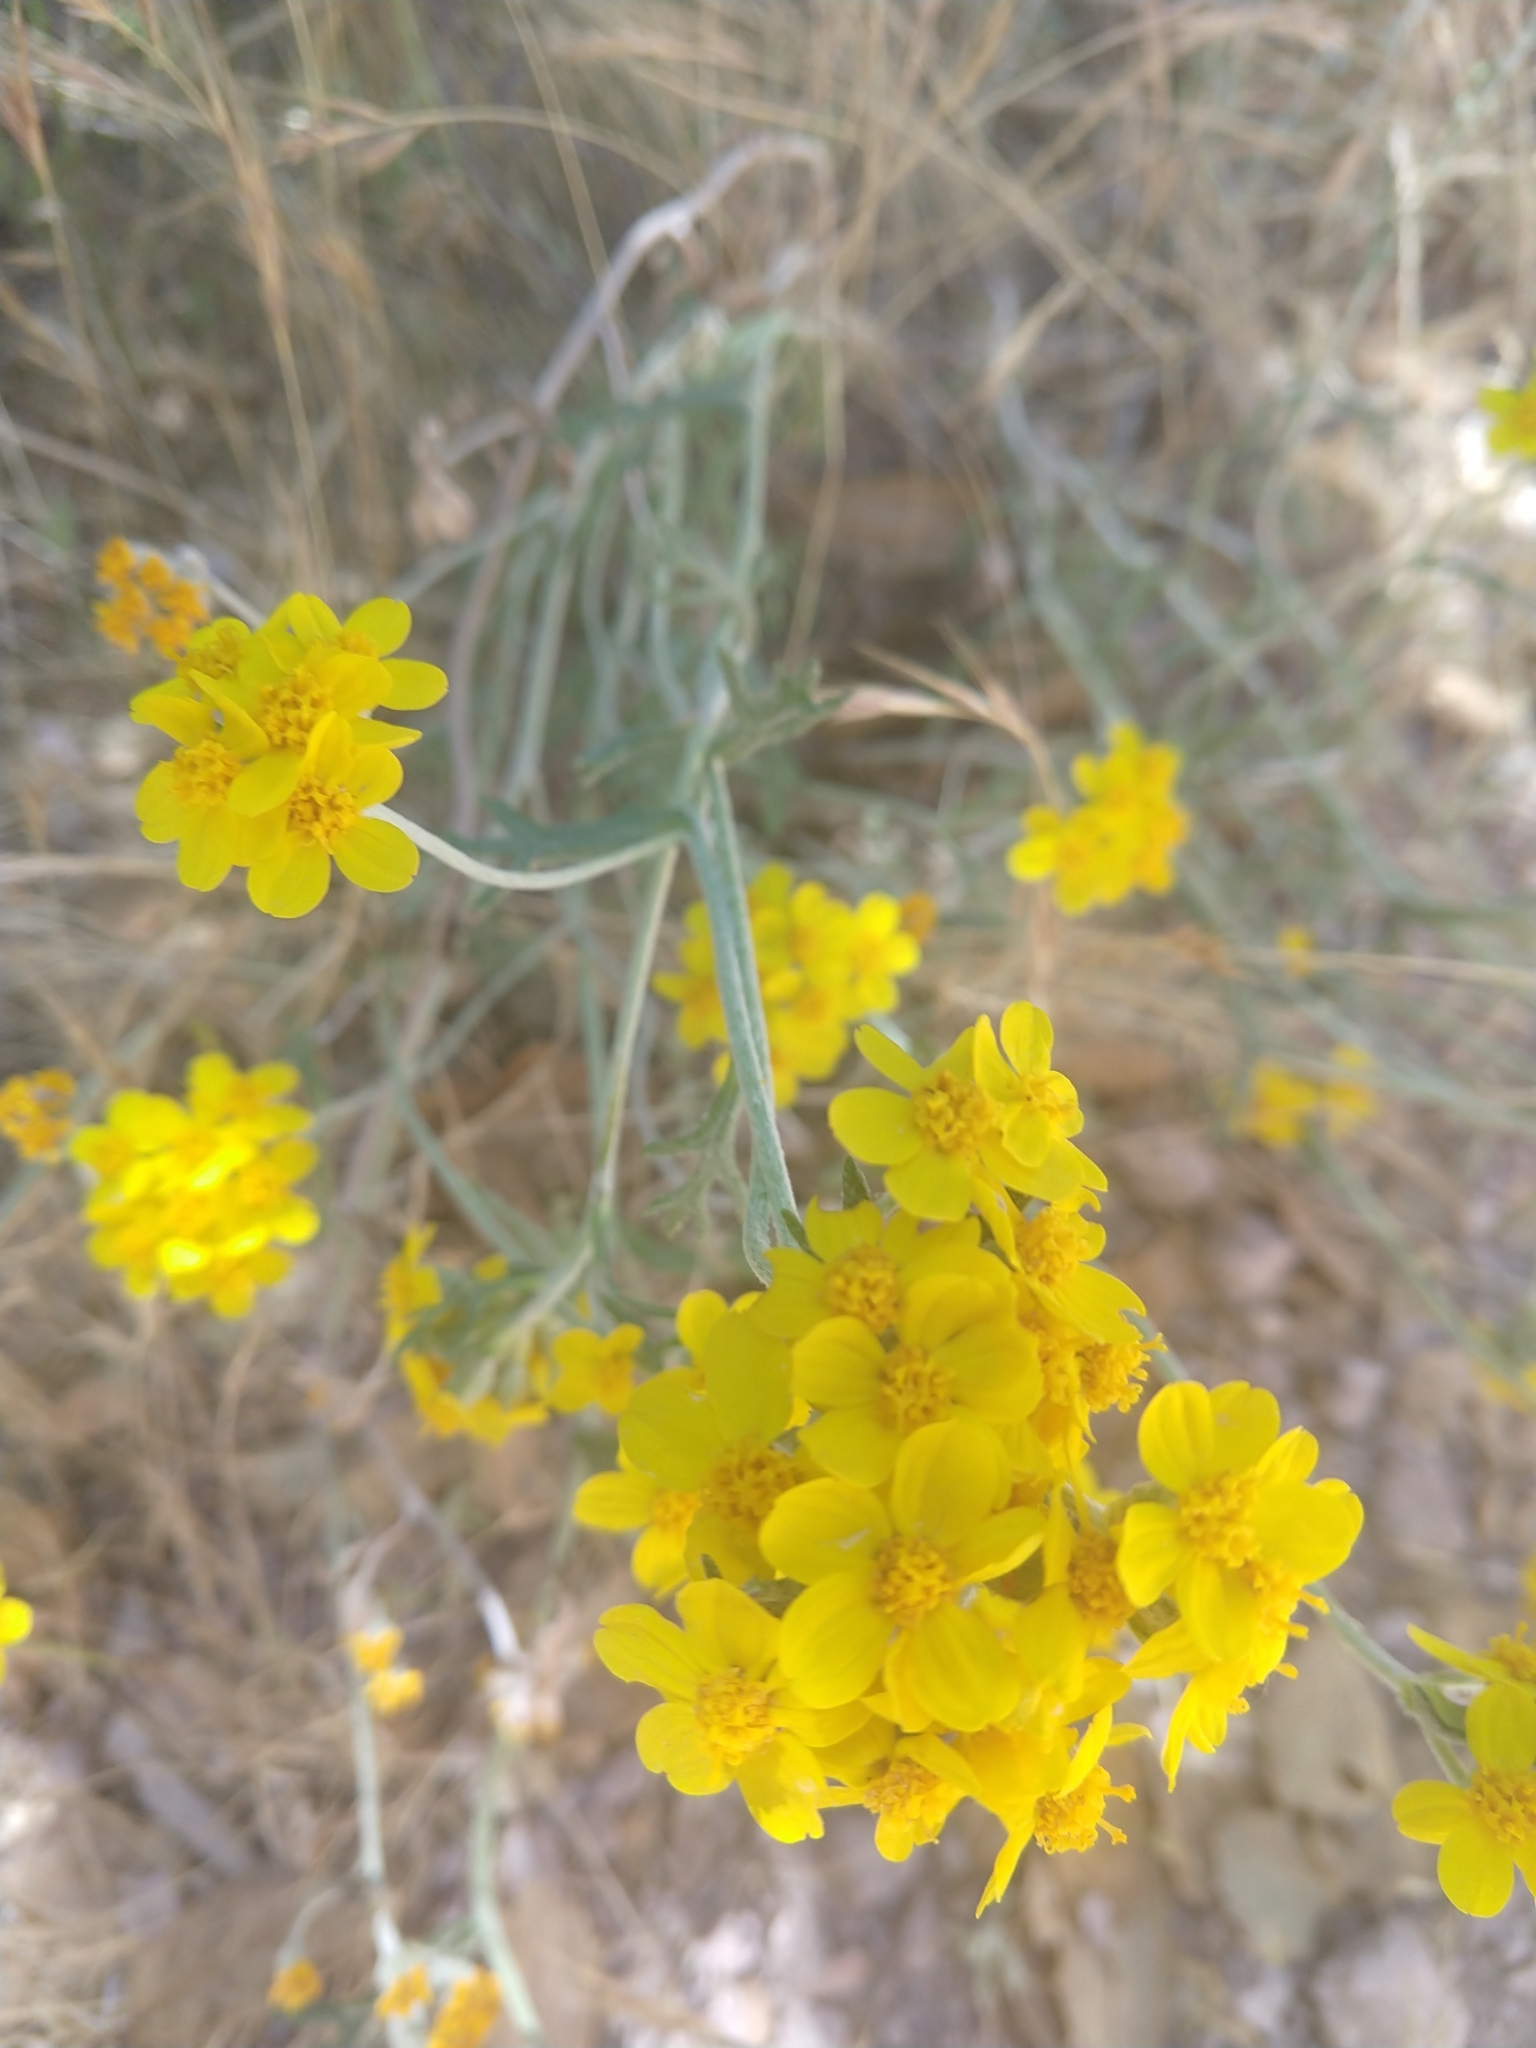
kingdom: Plantae
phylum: Tracheophyta
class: Magnoliopsida
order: Asterales
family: Asteraceae
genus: Eriophyllum
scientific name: Eriophyllum confertiflorum
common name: Golden-yarrow
